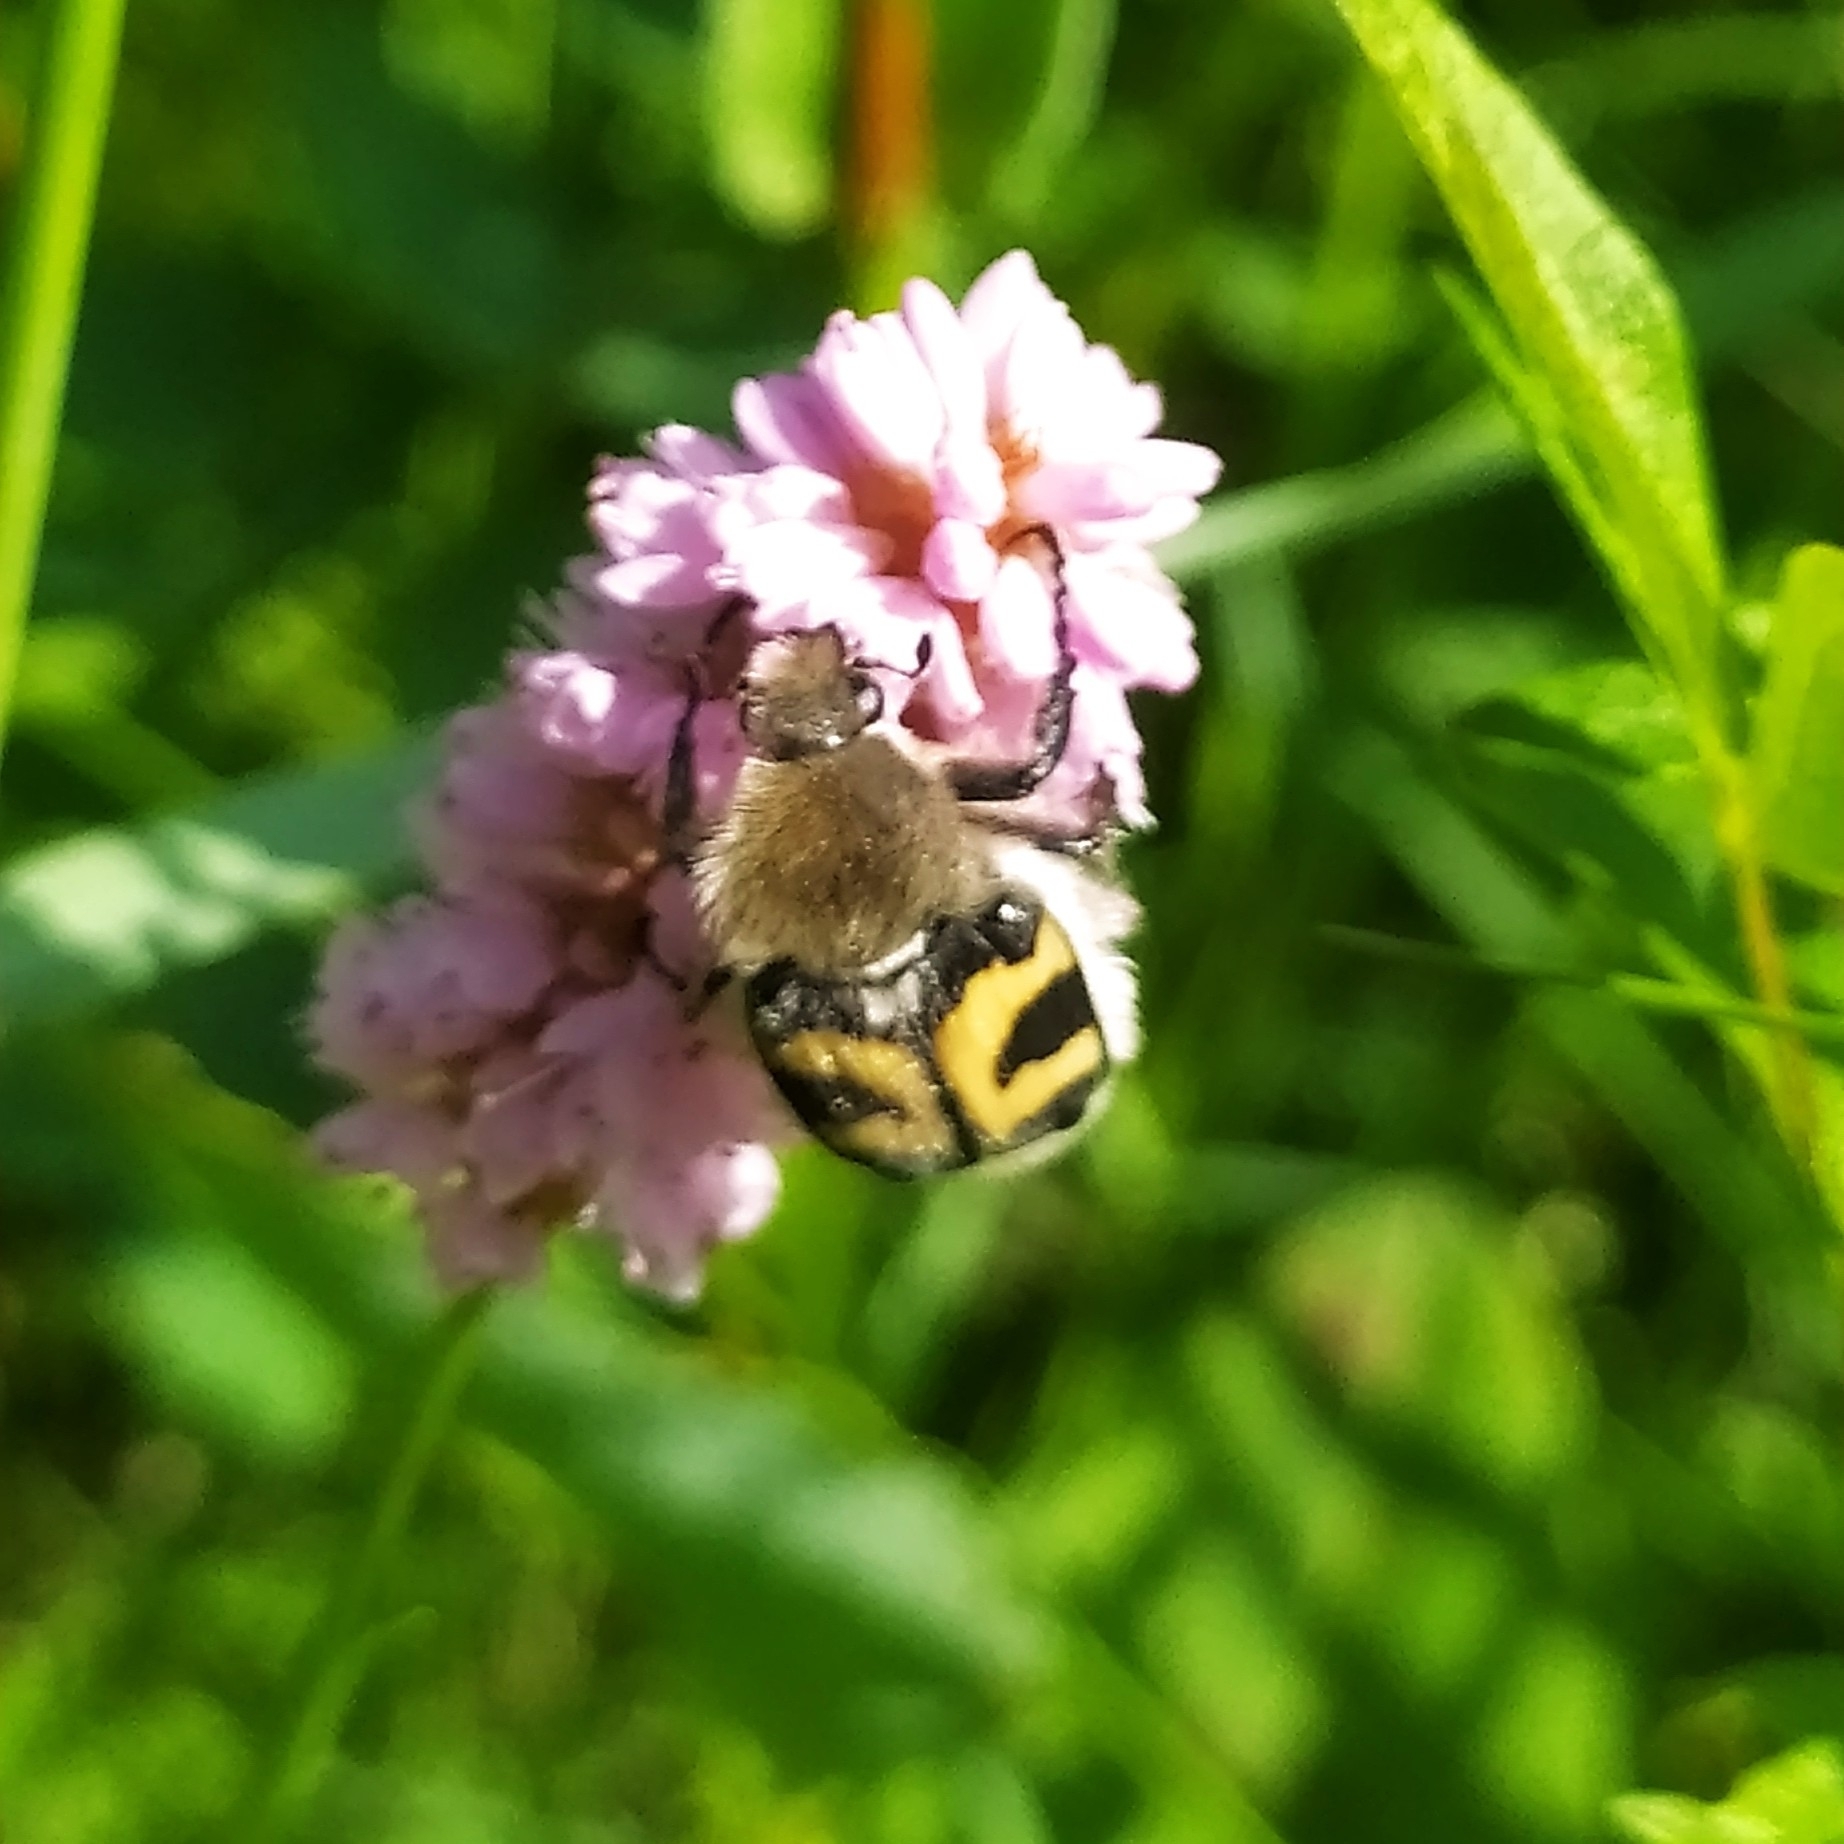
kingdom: Animalia
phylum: Arthropoda
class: Insecta
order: Coleoptera
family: Scarabaeidae
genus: Trichius
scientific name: Trichius fasciatus
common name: Bee beetle
